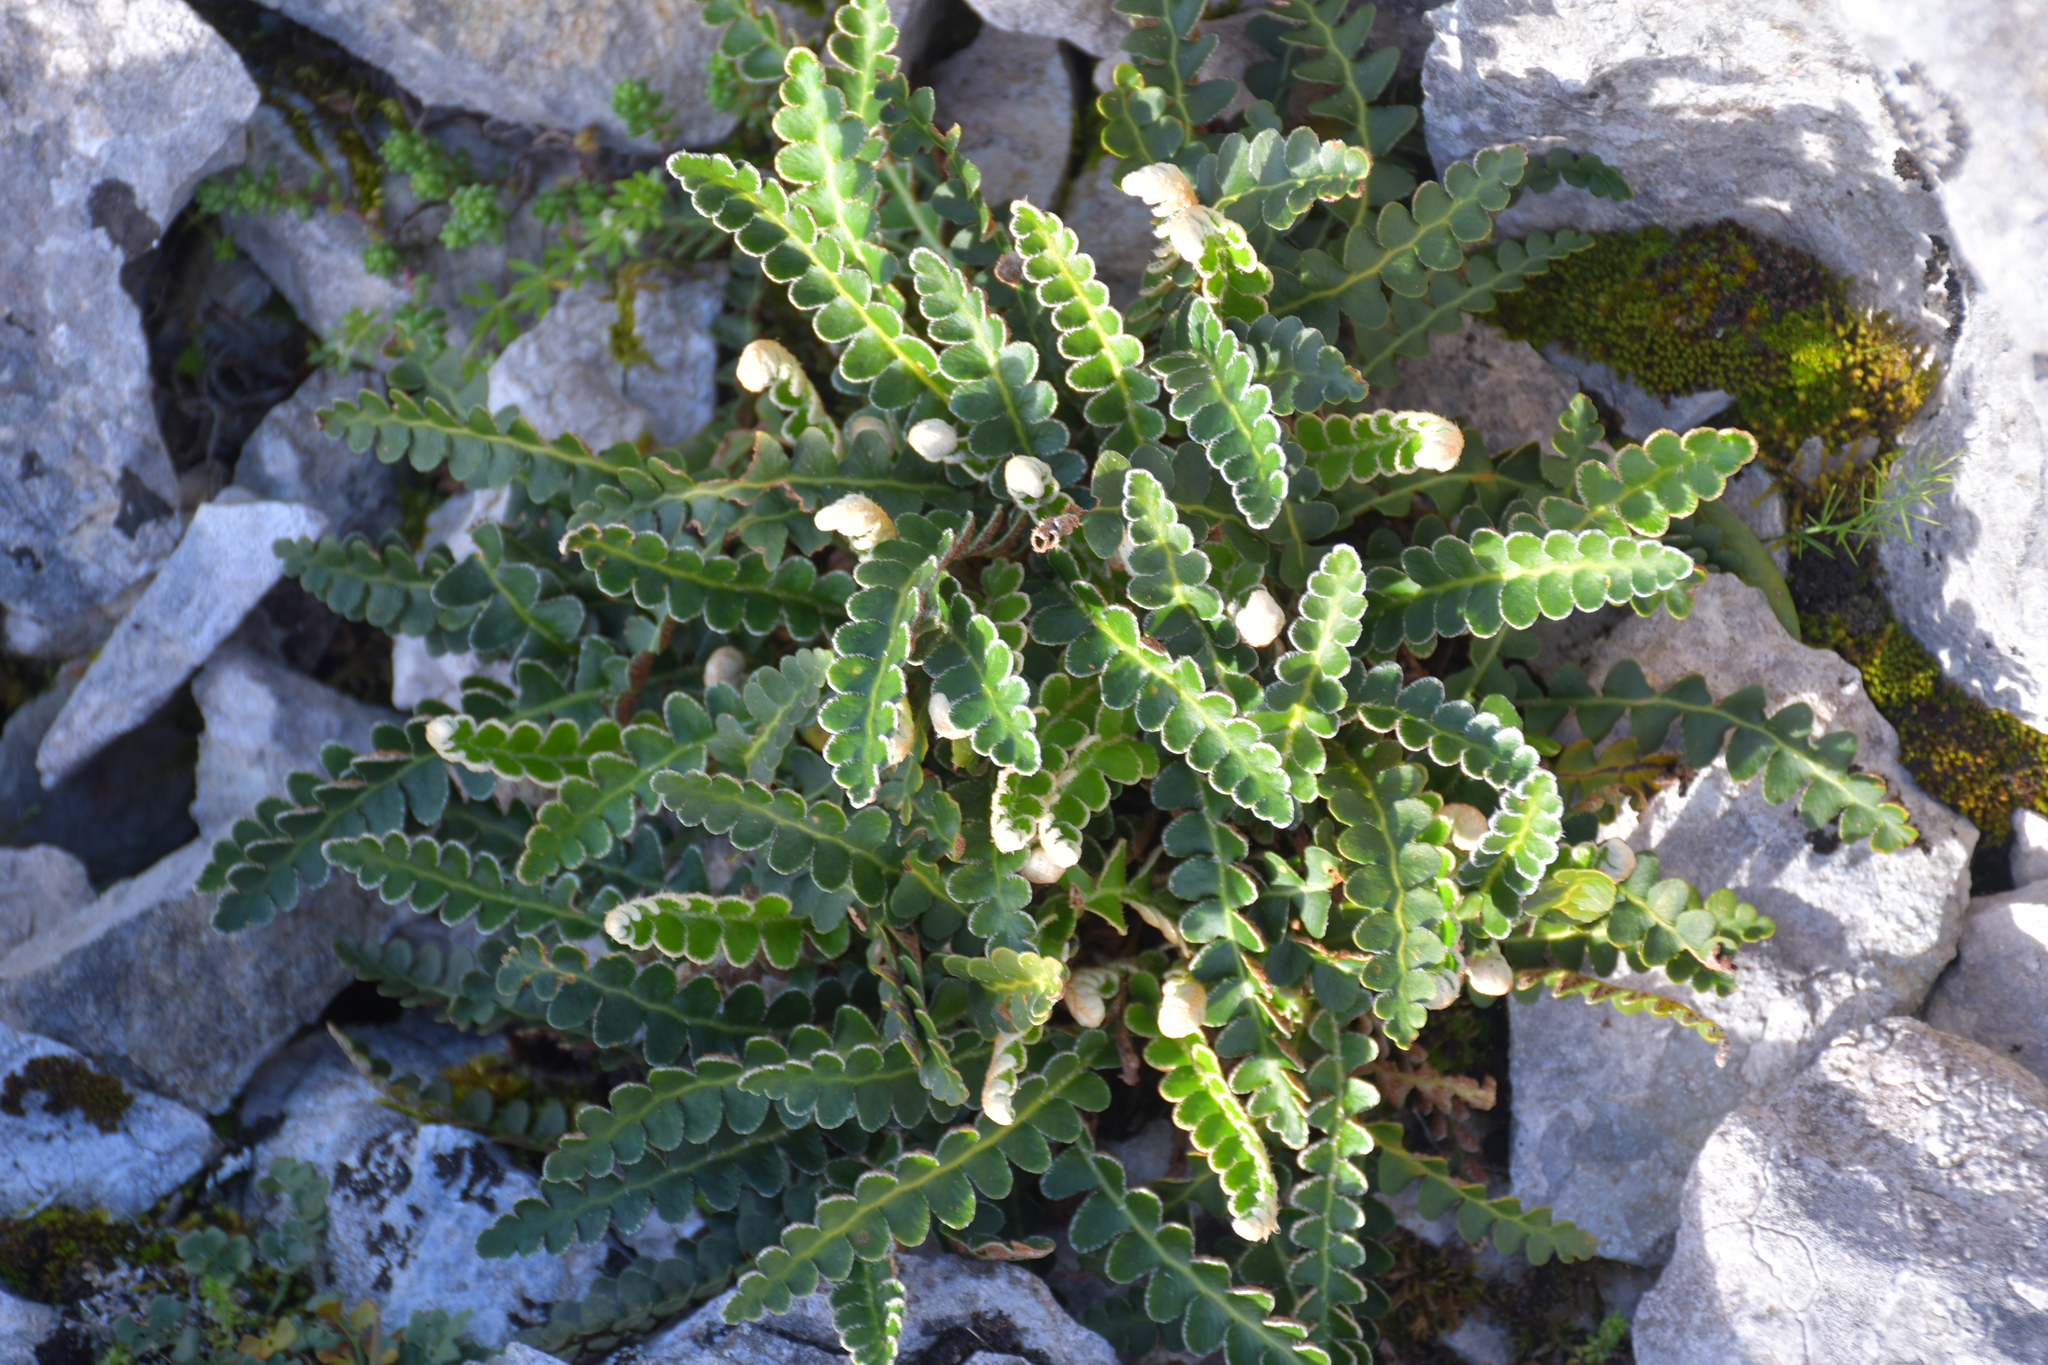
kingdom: Plantae
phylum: Tracheophyta
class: Polypodiopsida
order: Polypodiales
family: Aspleniaceae
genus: Asplenium
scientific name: Asplenium ceterach
